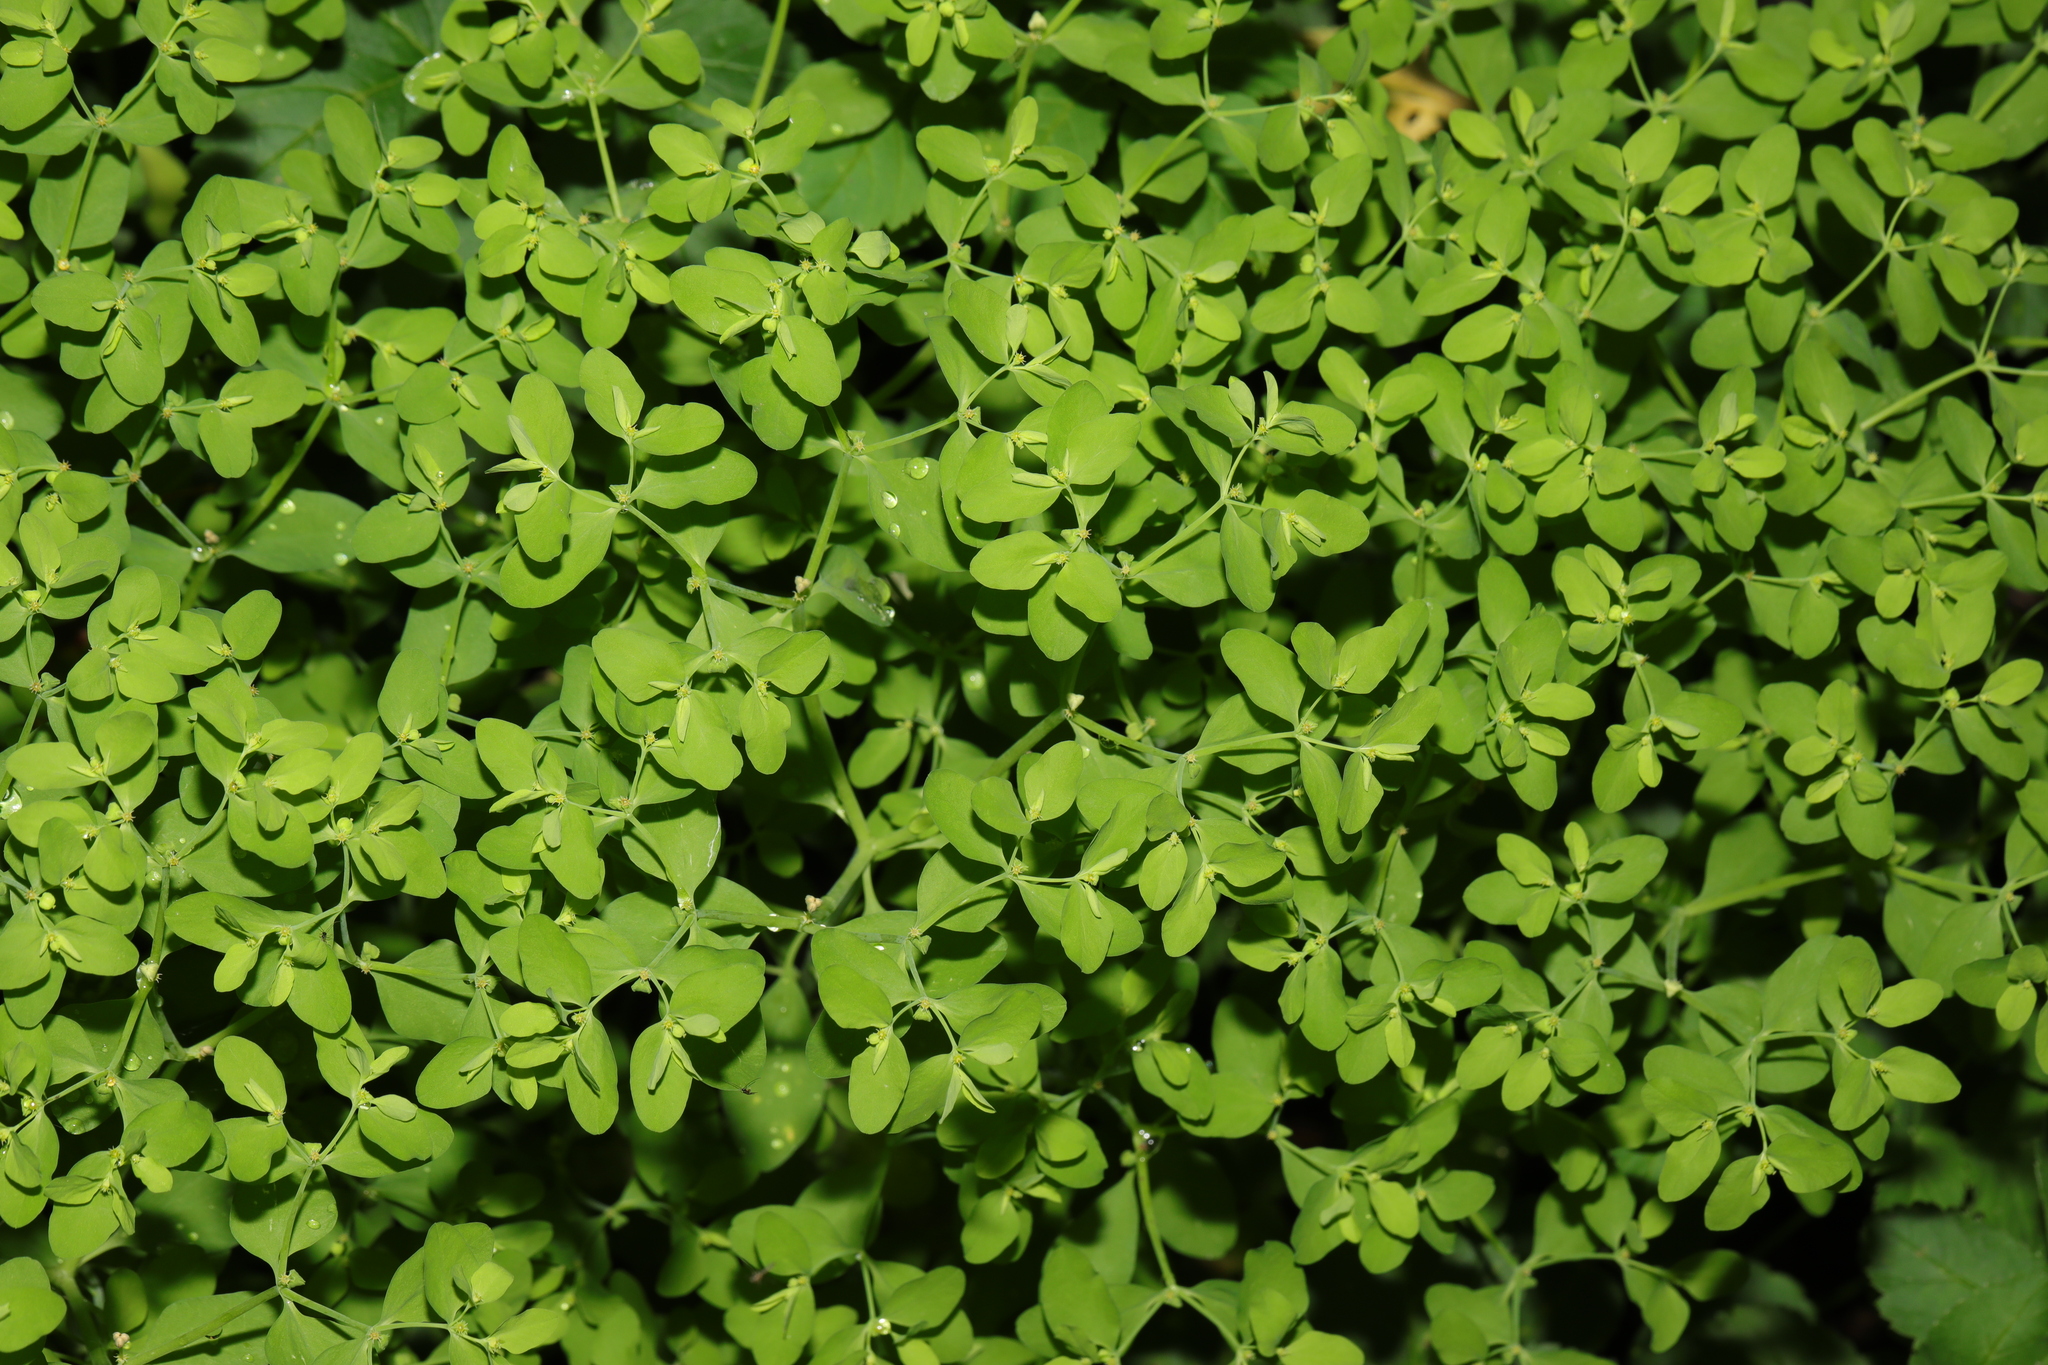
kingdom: Plantae
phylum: Tracheophyta
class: Magnoliopsida
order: Malpighiales
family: Euphorbiaceae
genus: Euphorbia
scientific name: Euphorbia peplus
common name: Petty spurge
